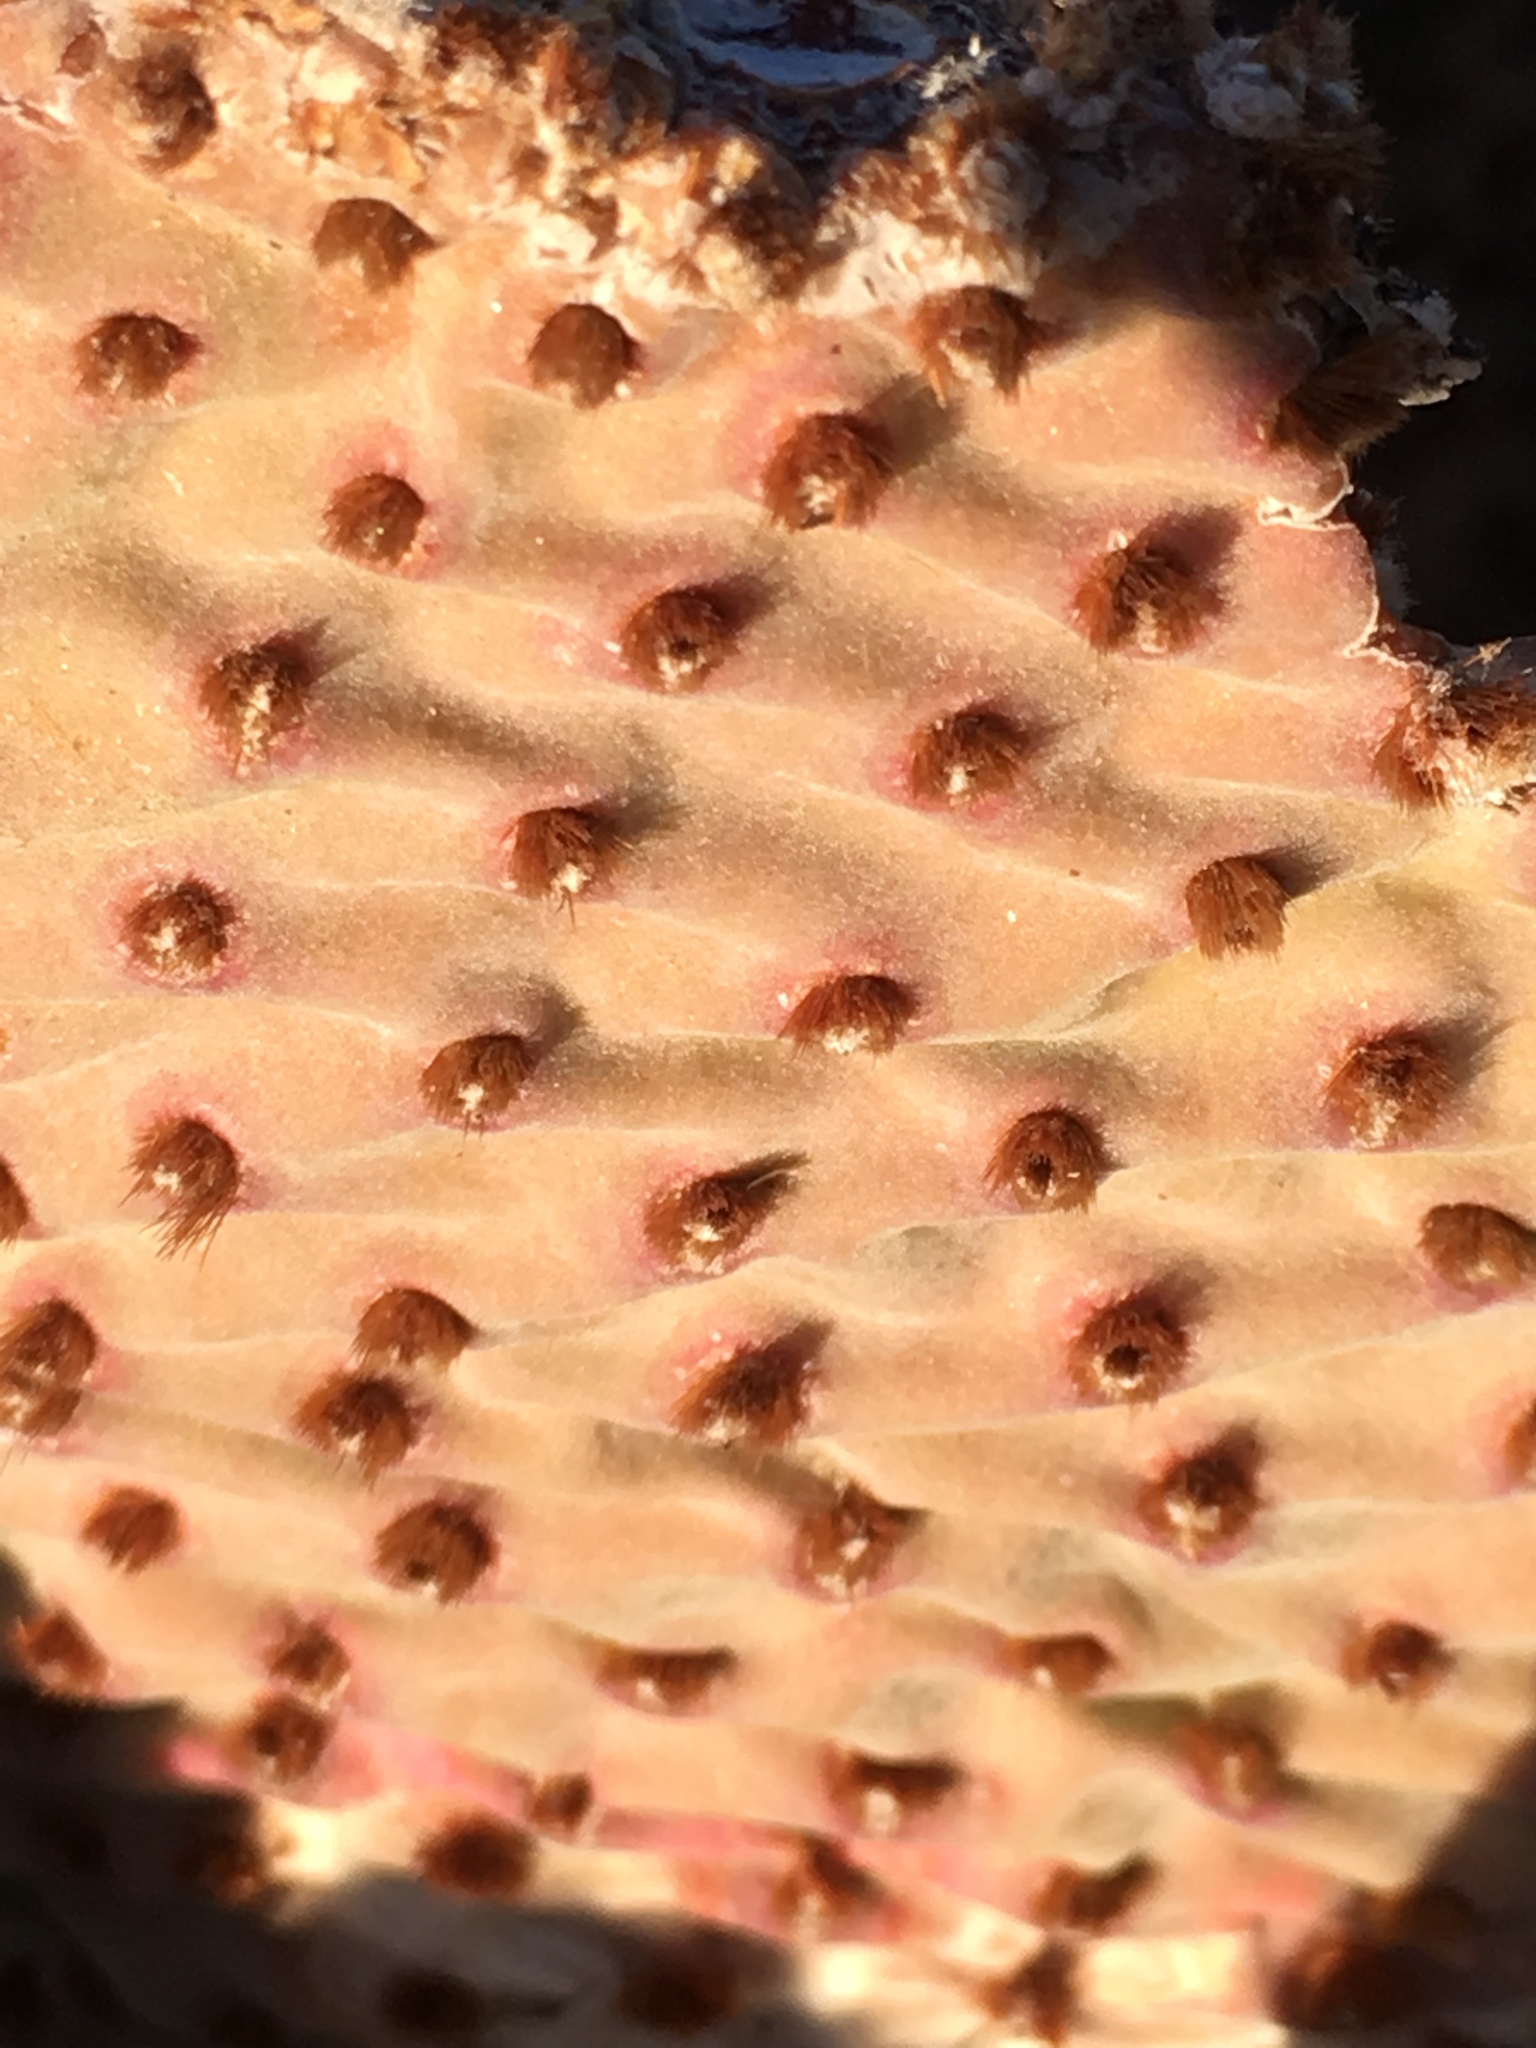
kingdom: Plantae
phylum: Tracheophyta
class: Magnoliopsida
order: Caryophyllales
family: Cactaceae
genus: Opuntia
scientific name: Opuntia basilaris
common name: Beavertail prickly-pear
